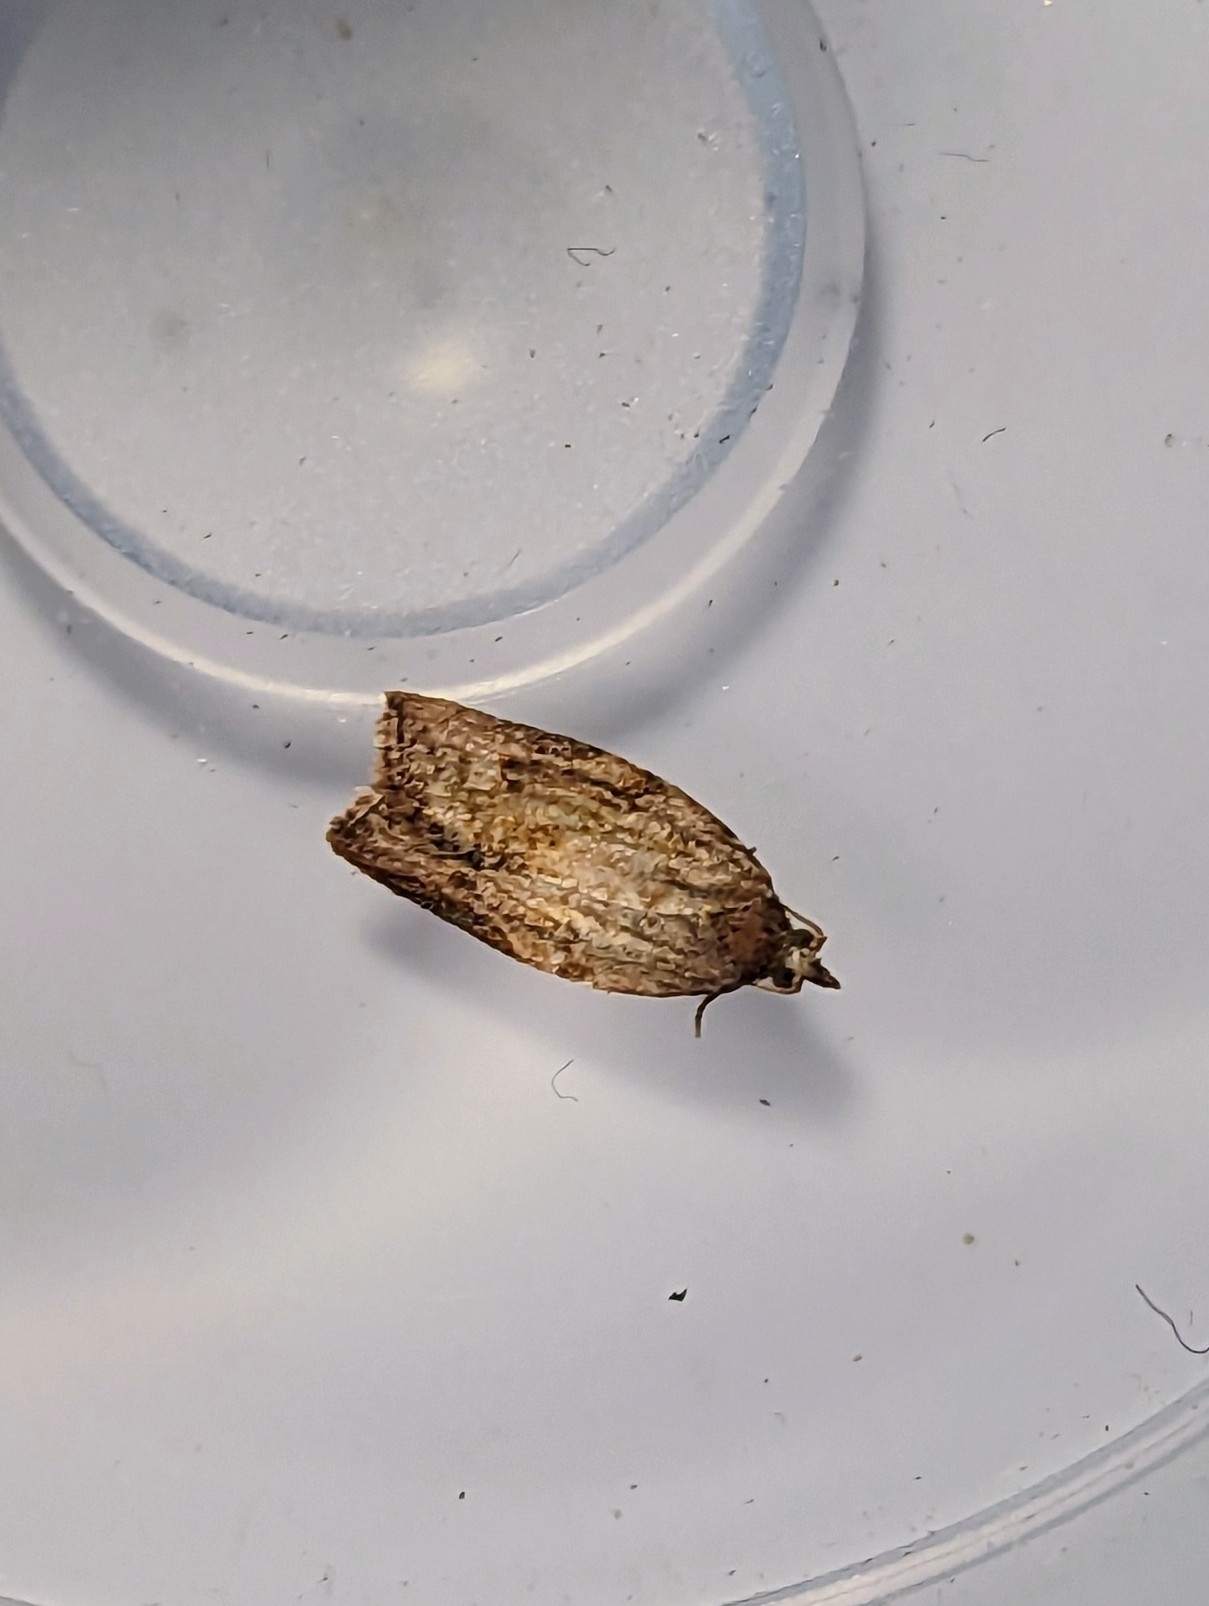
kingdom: Animalia
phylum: Arthropoda
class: Insecta
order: Lepidoptera
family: Tortricidae
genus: Epiphyas
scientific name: Epiphyas postvittana
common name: Light brown apple moth
